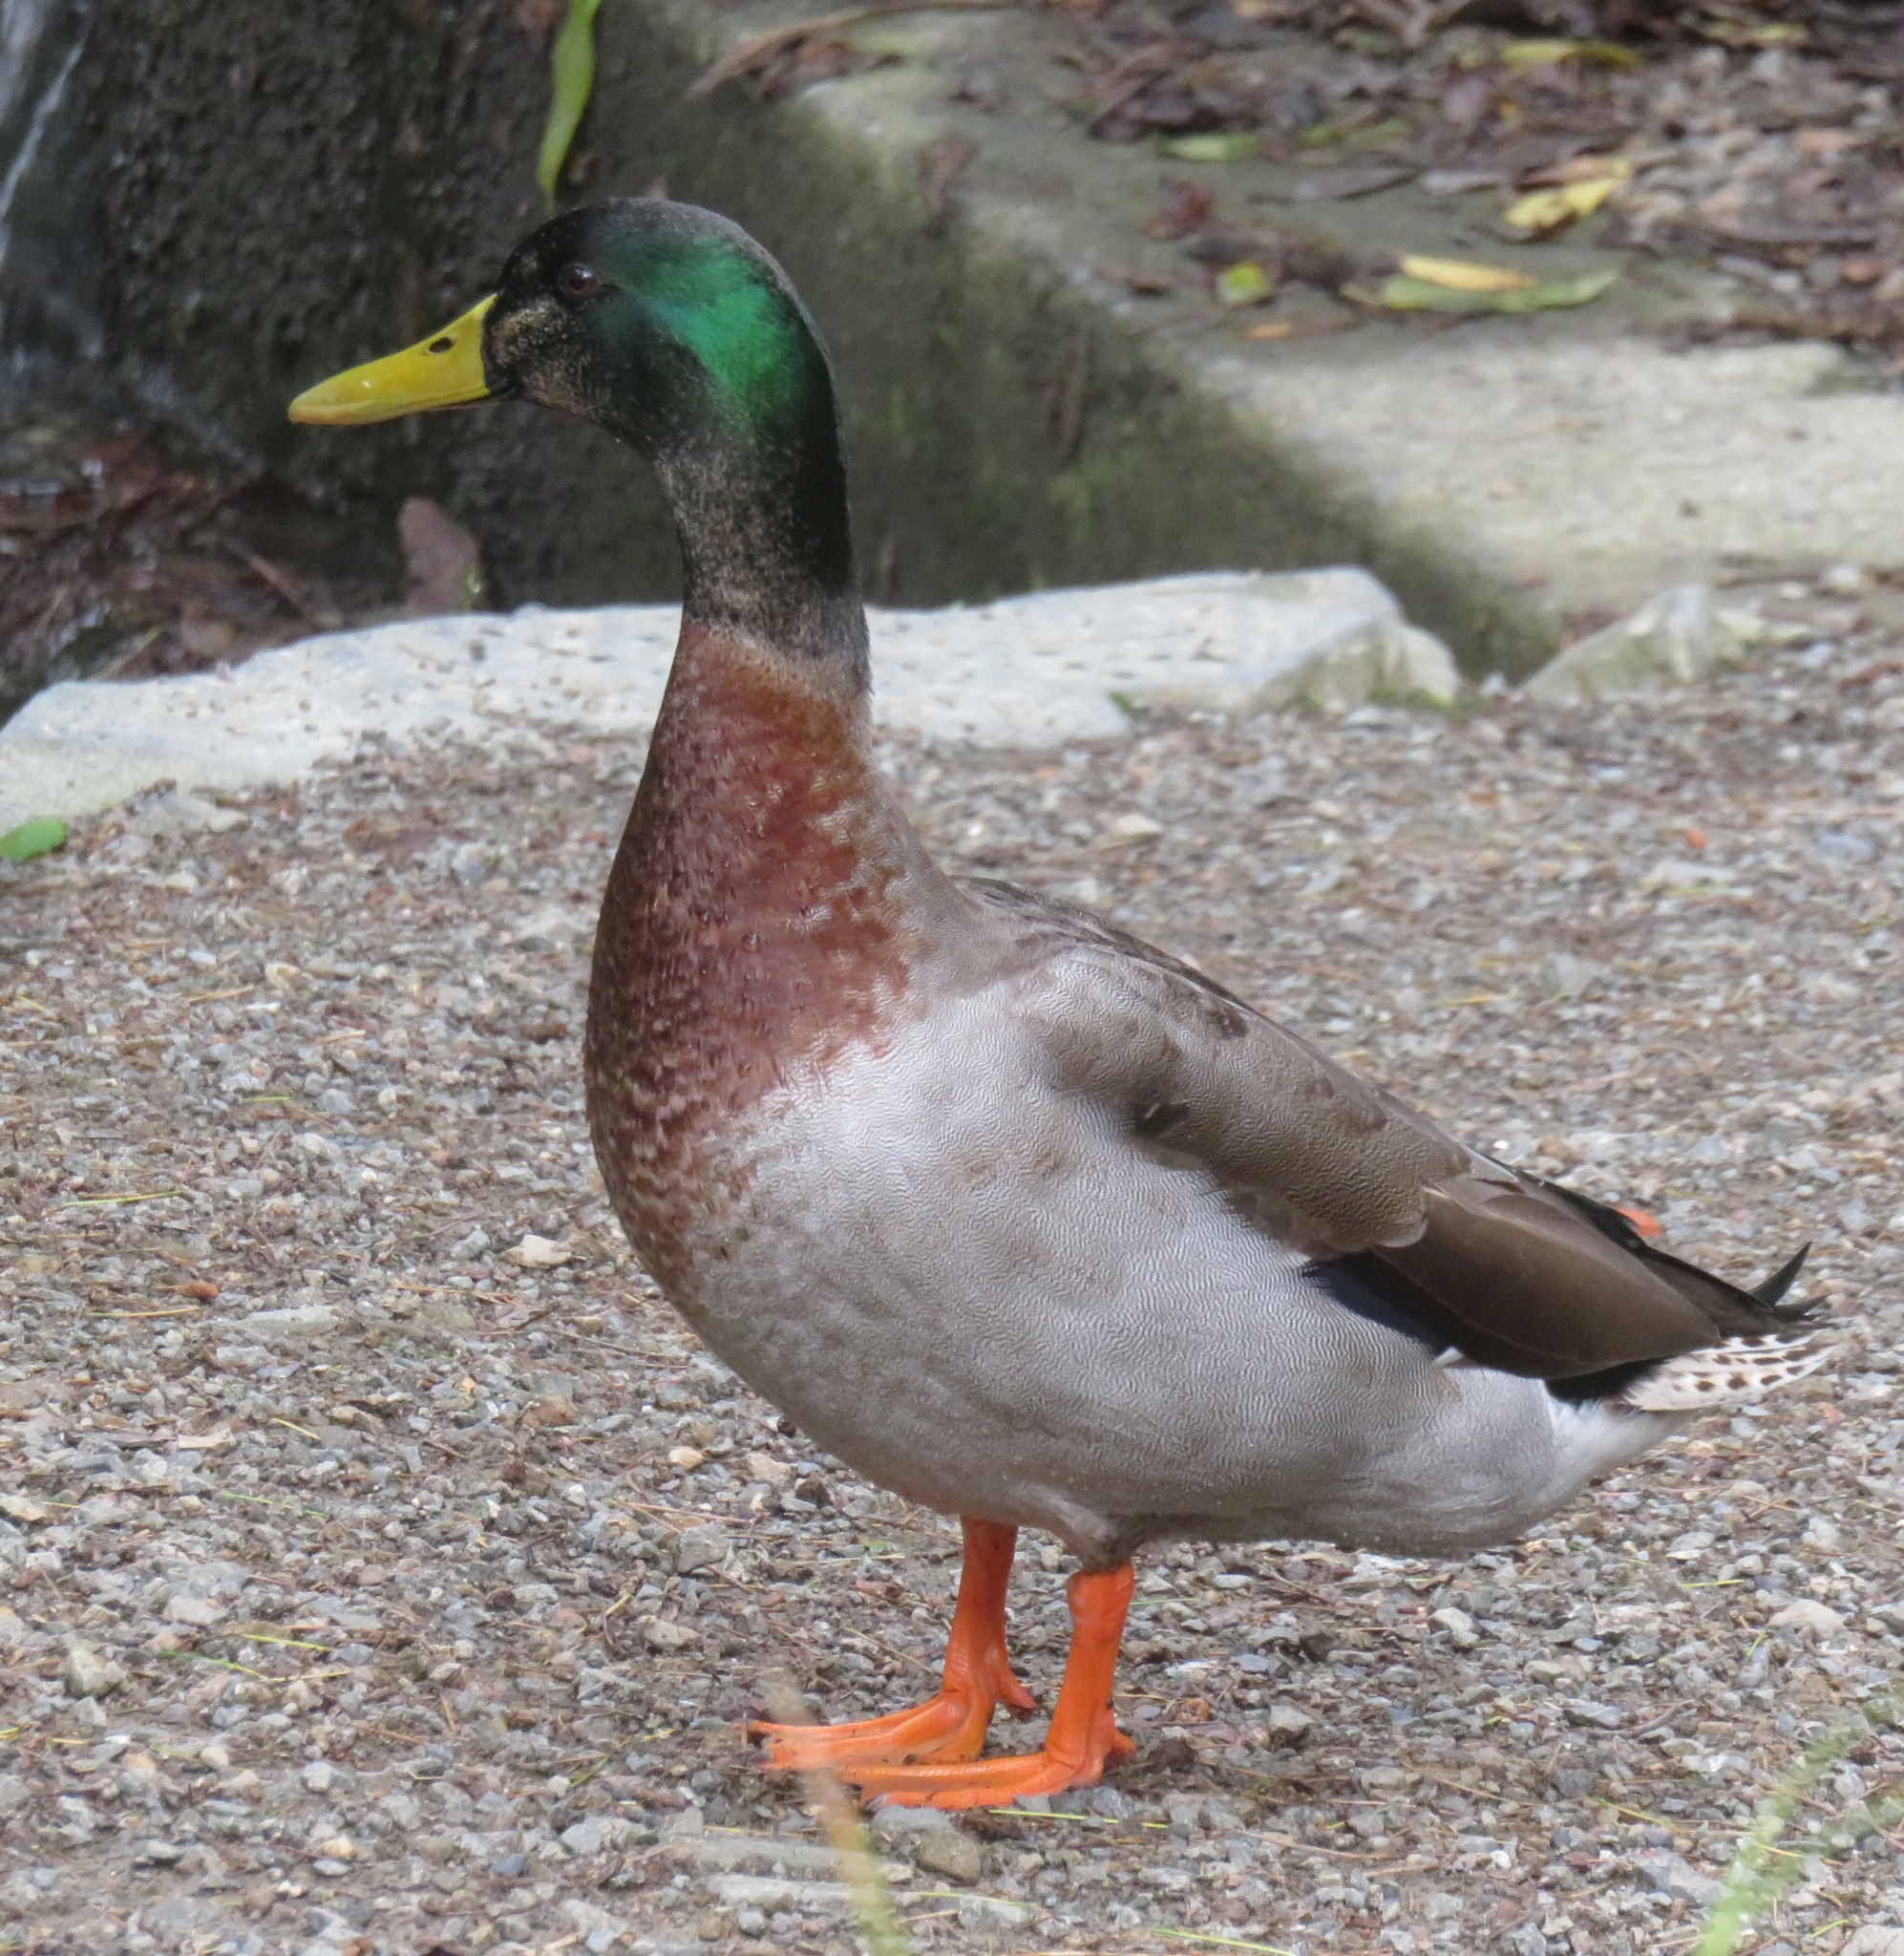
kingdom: Animalia
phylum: Chordata
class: Aves
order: Anseriformes
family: Anatidae
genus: Anas
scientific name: Anas platyrhynchos
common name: Mallard
